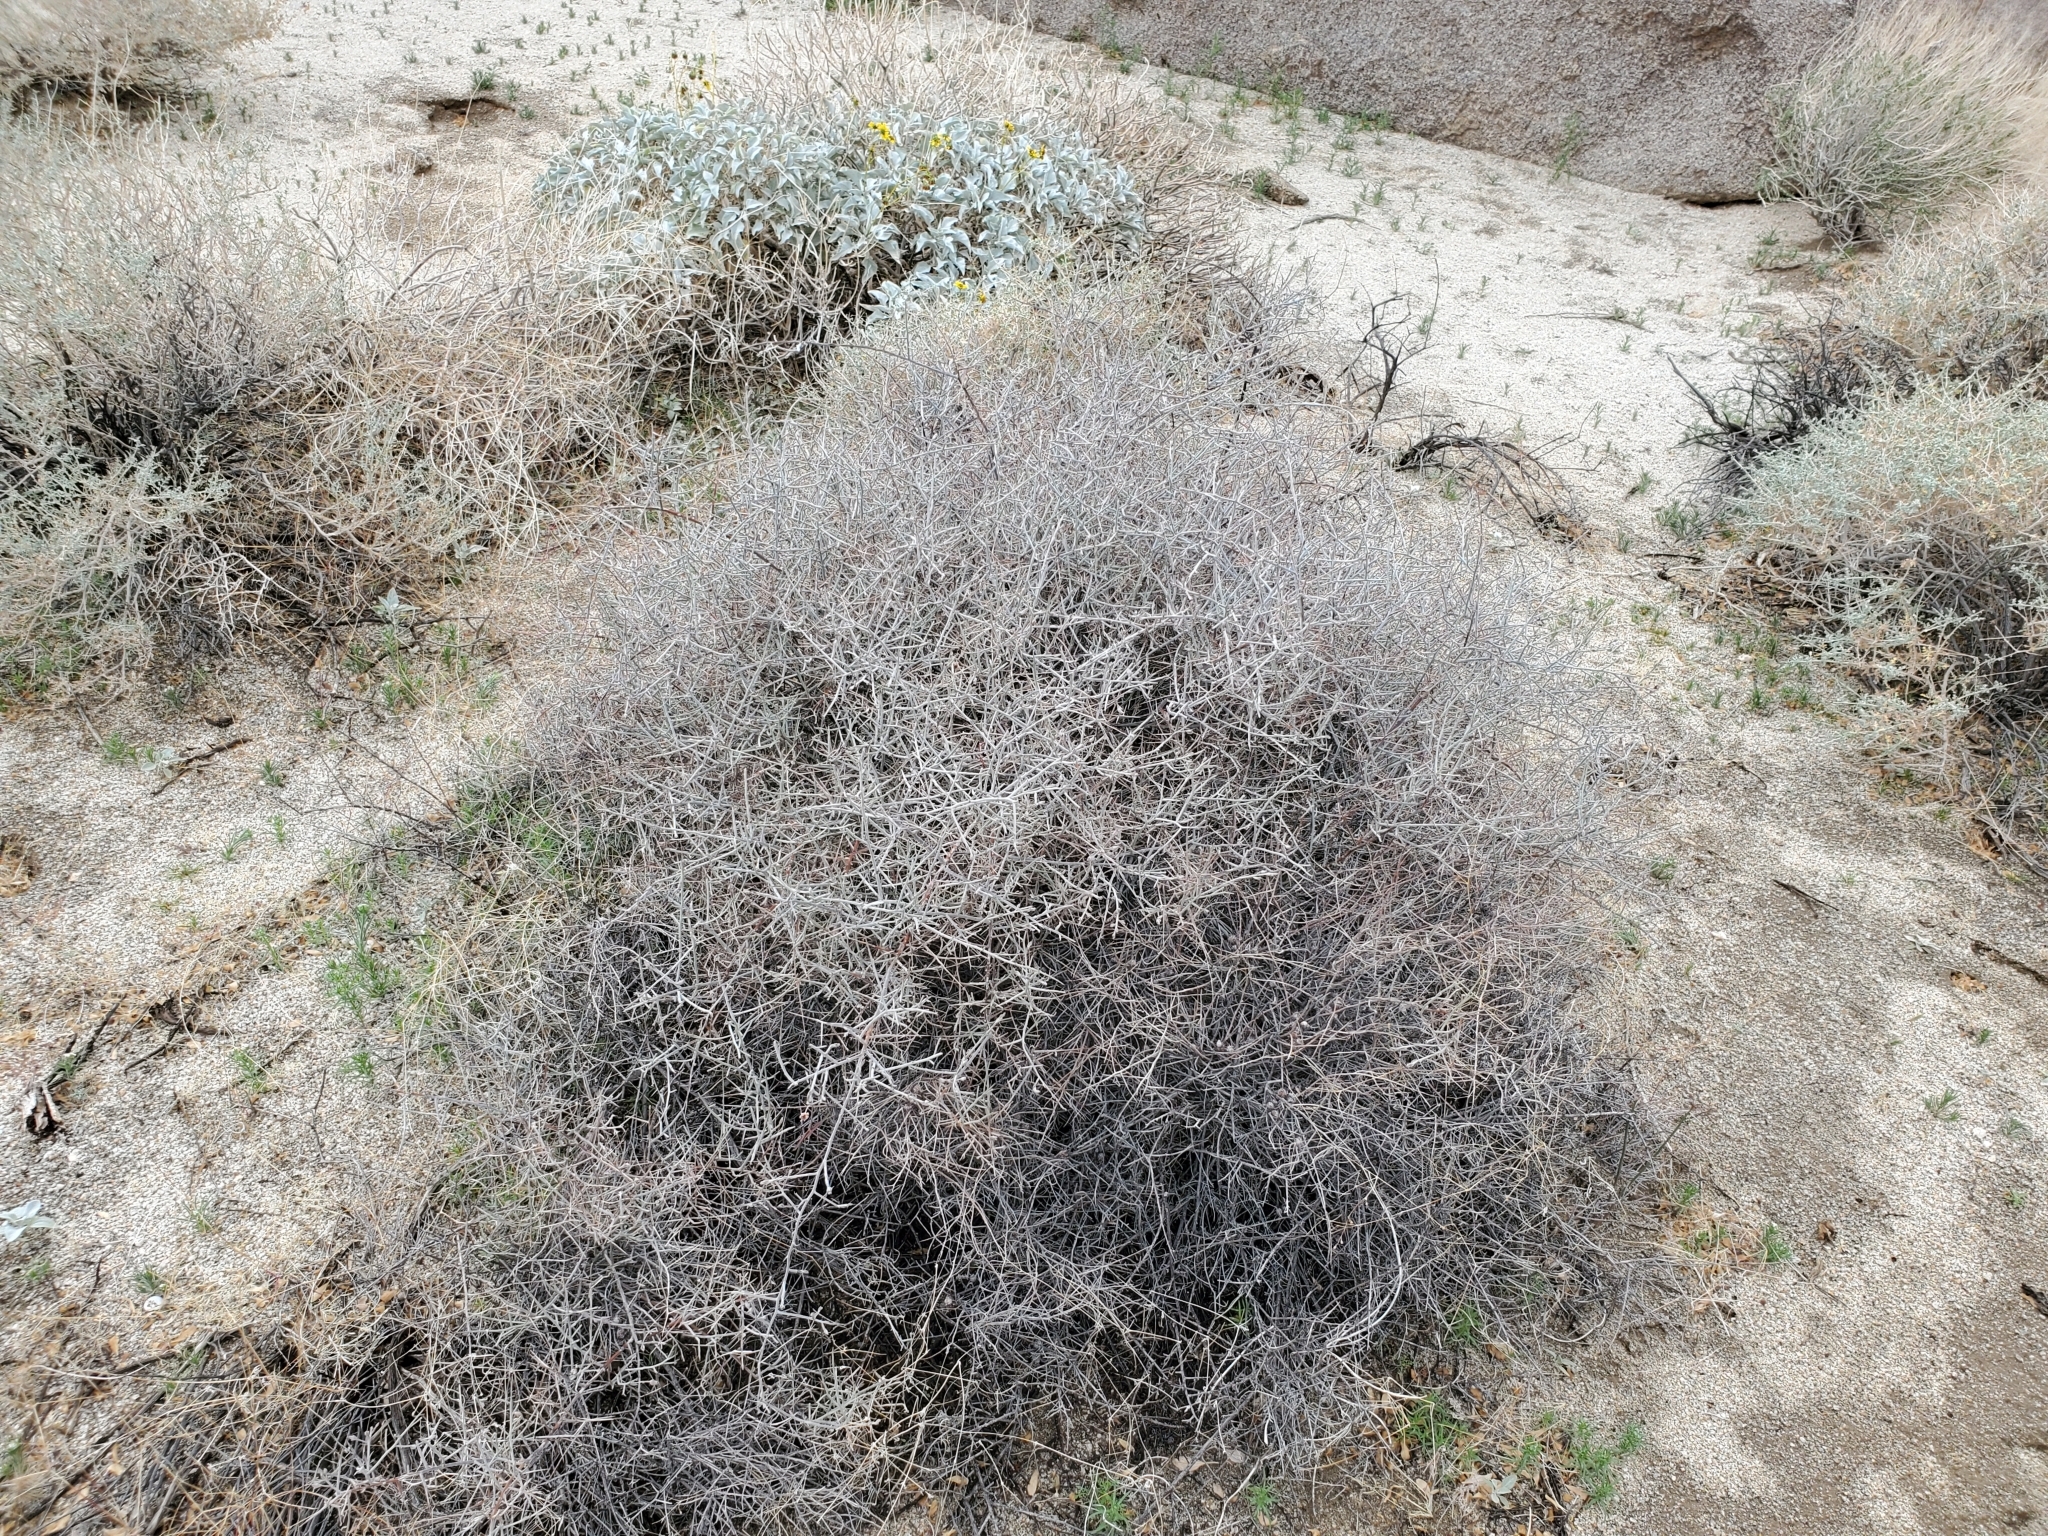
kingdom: Plantae
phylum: Tracheophyta
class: Magnoliopsida
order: Zygophyllales
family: Krameriaceae
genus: Krameria
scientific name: Krameria bicolor
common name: White ratany
